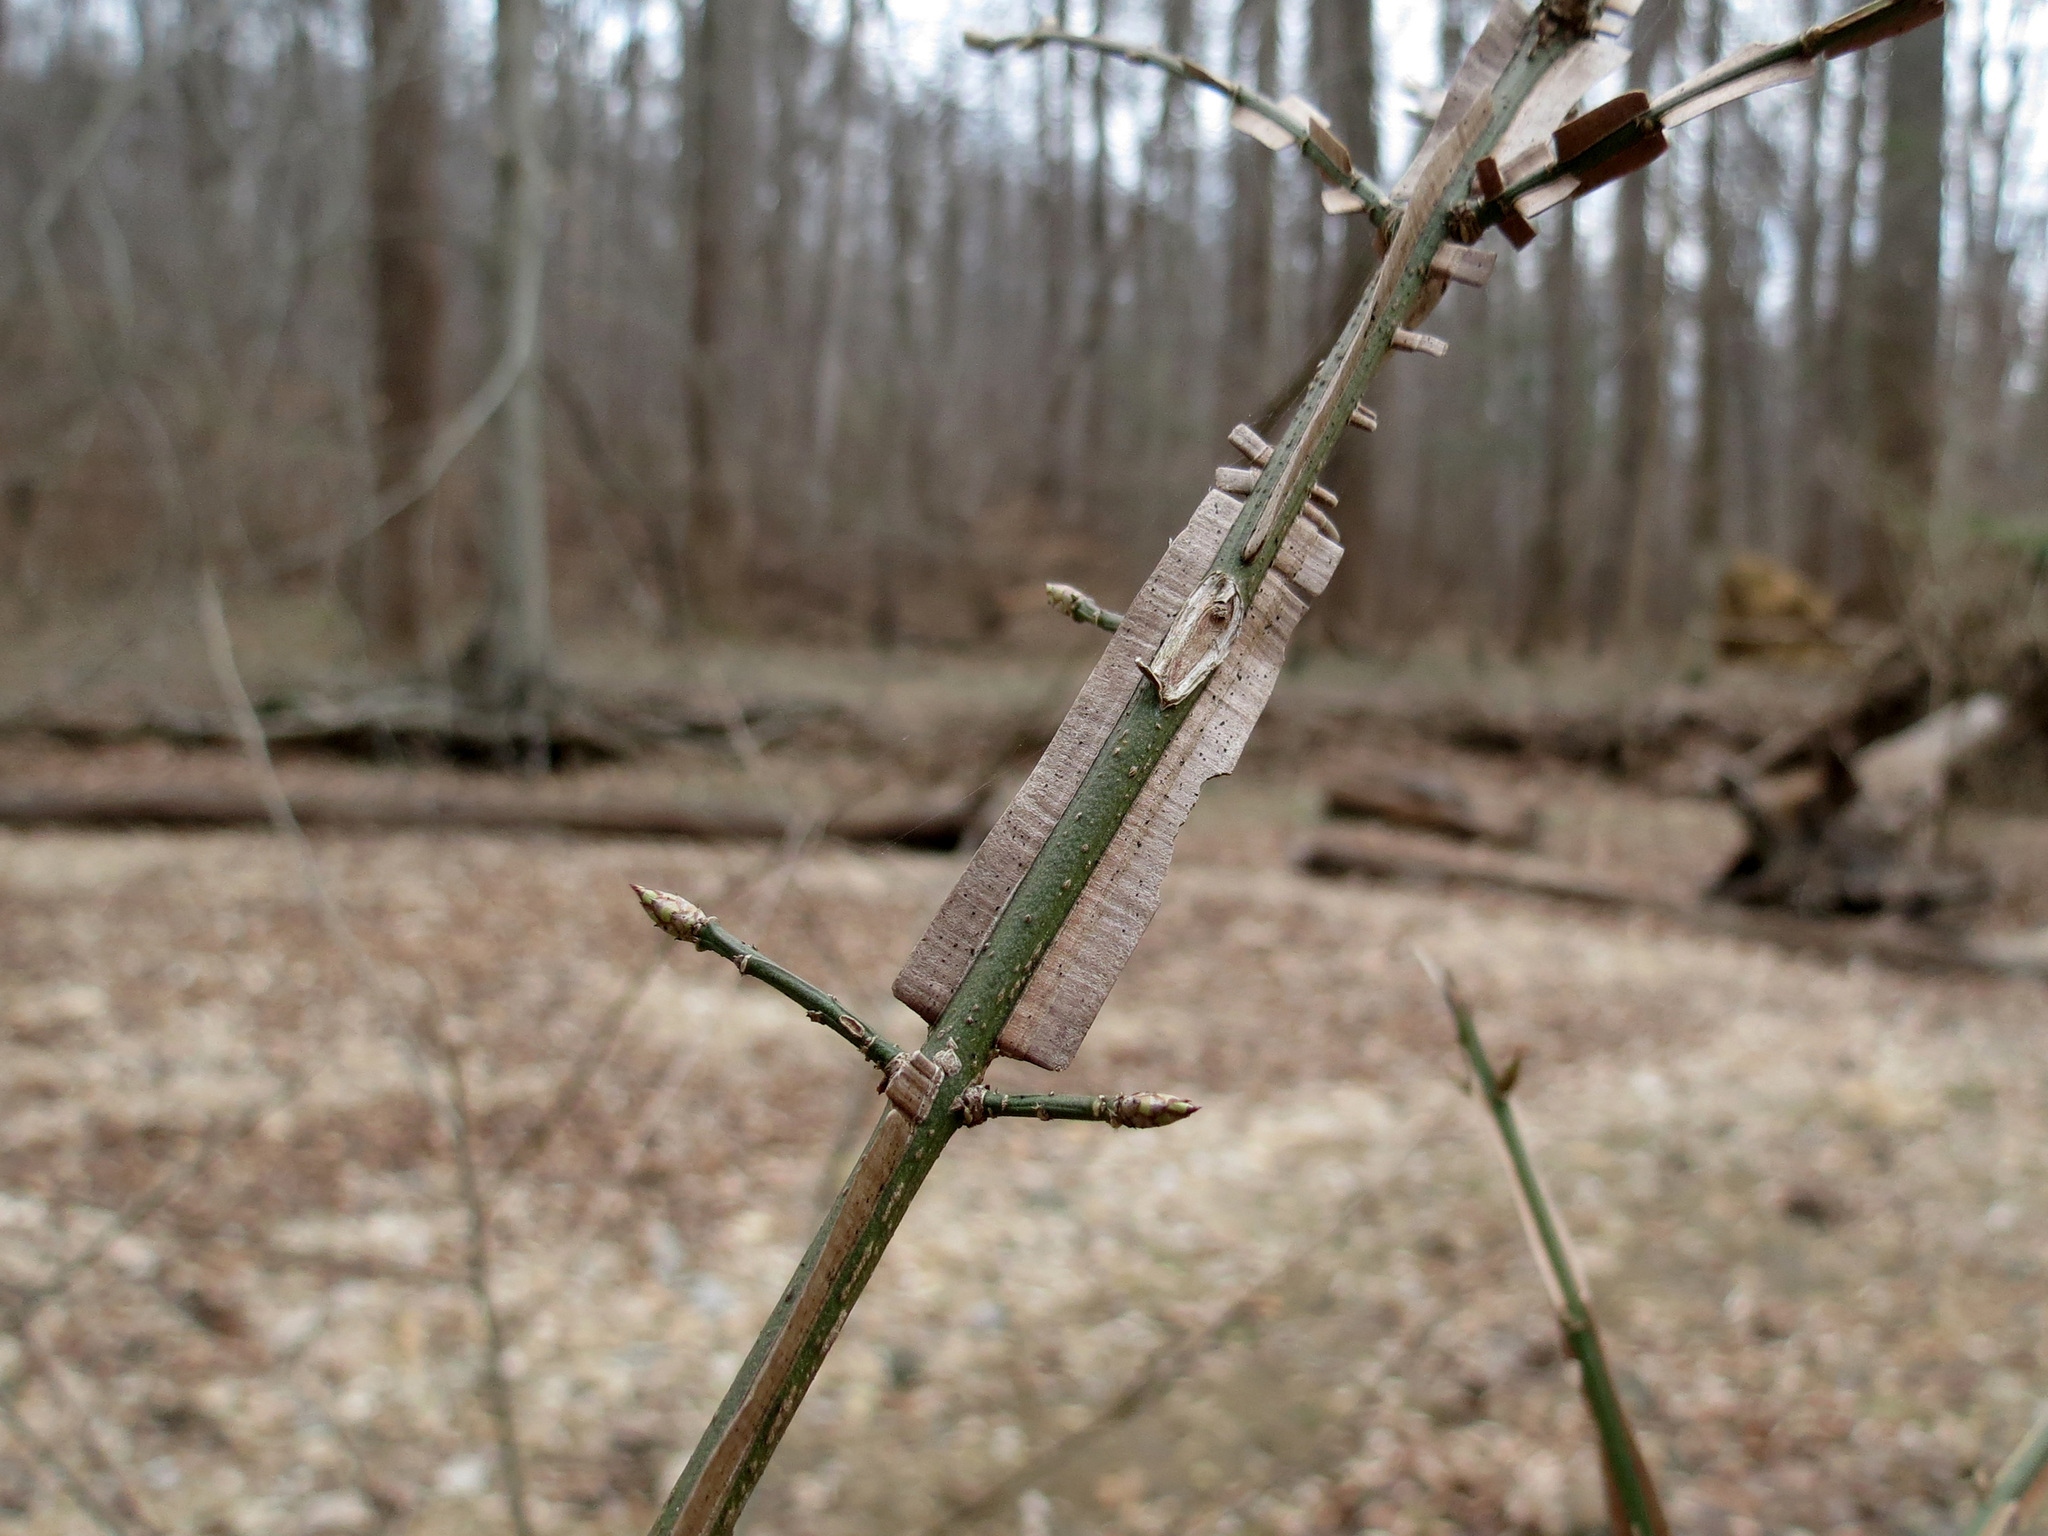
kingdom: Plantae
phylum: Tracheophyta
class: Magnoliopsida
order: Celastrales
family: Celastraceae
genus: Euonymus
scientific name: Euonymus alatus
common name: Winged euonymus
